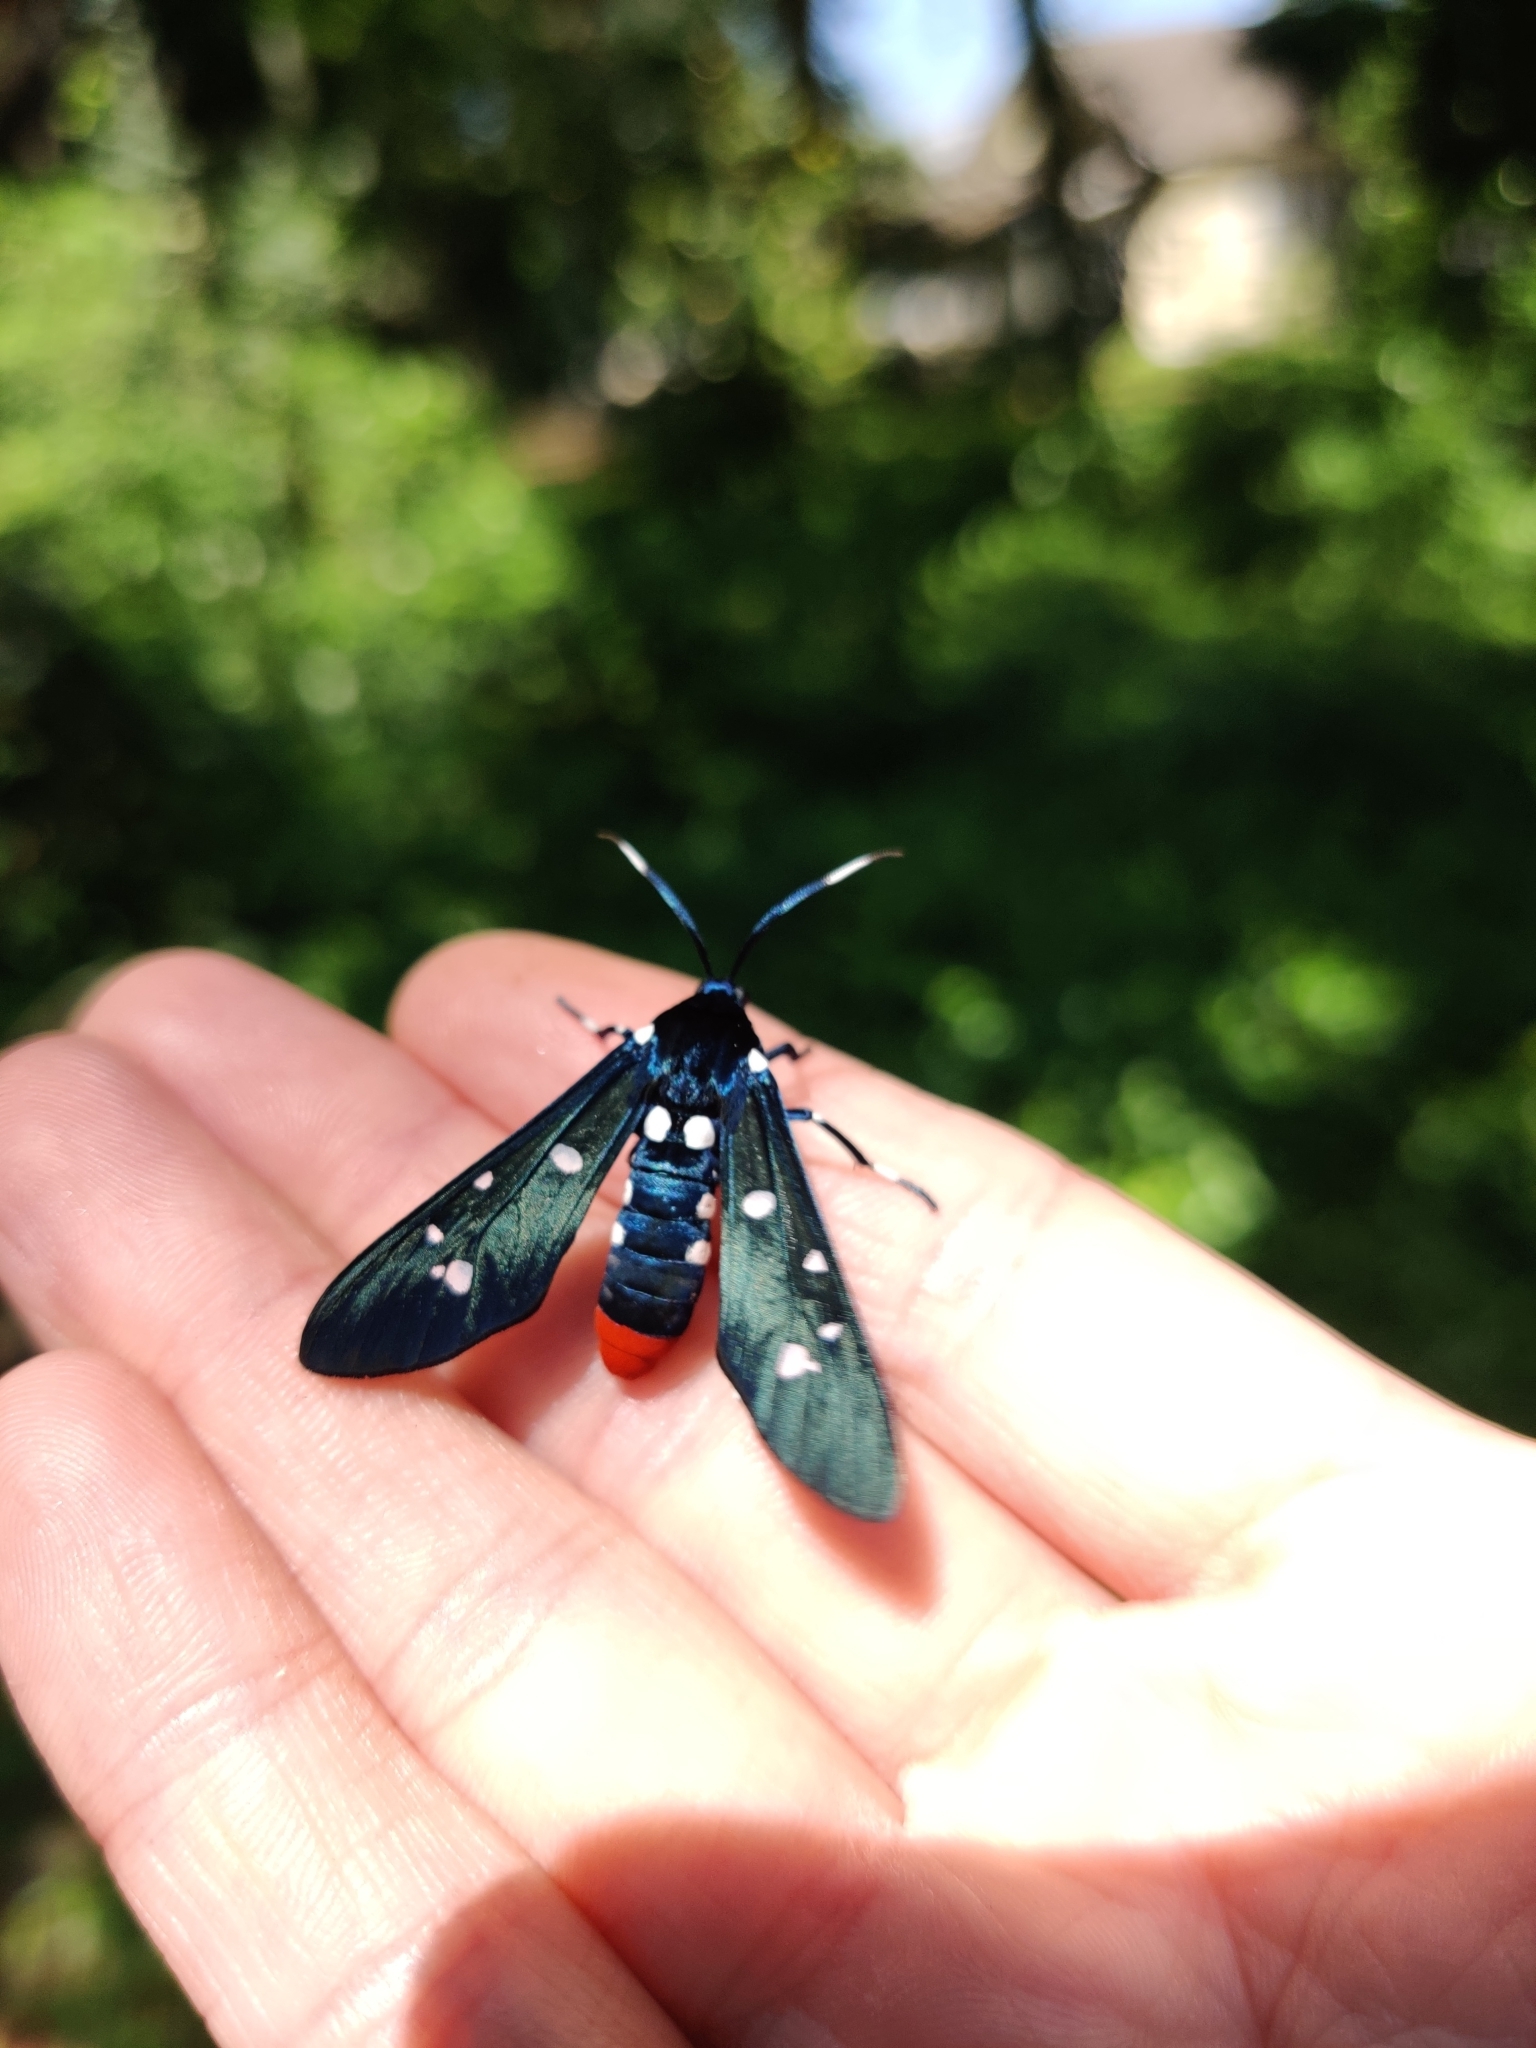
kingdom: Animalia
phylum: Arthropoda
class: Insecta
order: Lepidoptera
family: Erebidae
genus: Syntomeida
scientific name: Syntomeida epilais
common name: Polka-dot wasp moth
